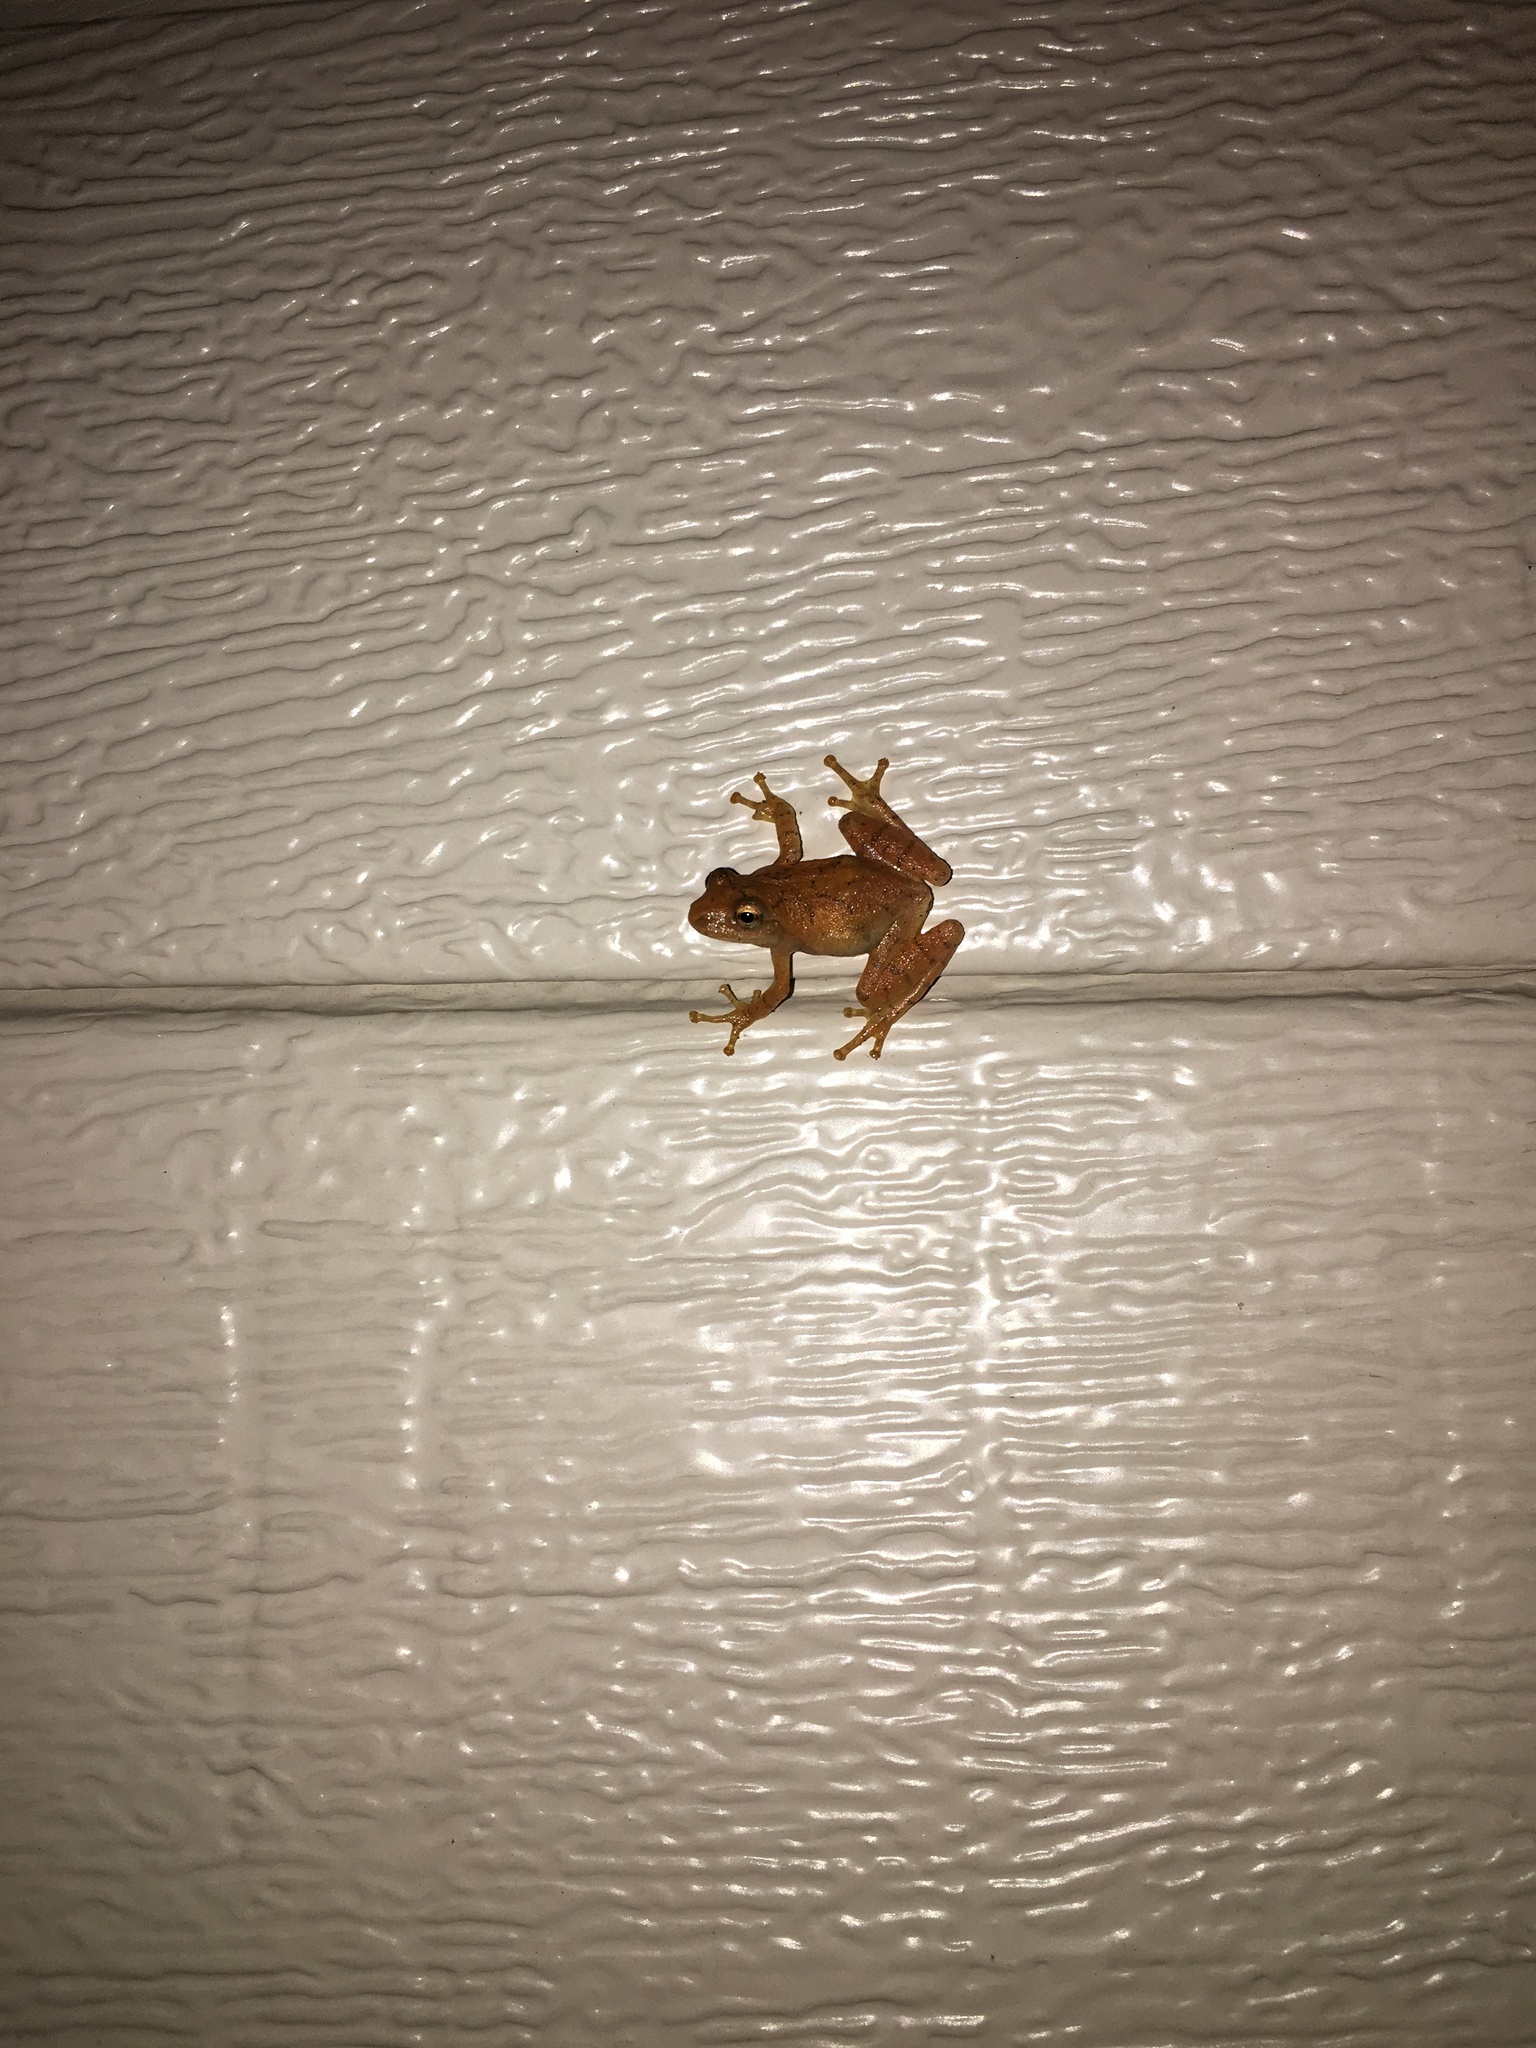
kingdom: Animalia
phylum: Chordata
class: Amphibia
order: Anura
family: Hylidae
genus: Pseudacris
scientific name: Pseudacris crucifer
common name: Spring peeper
